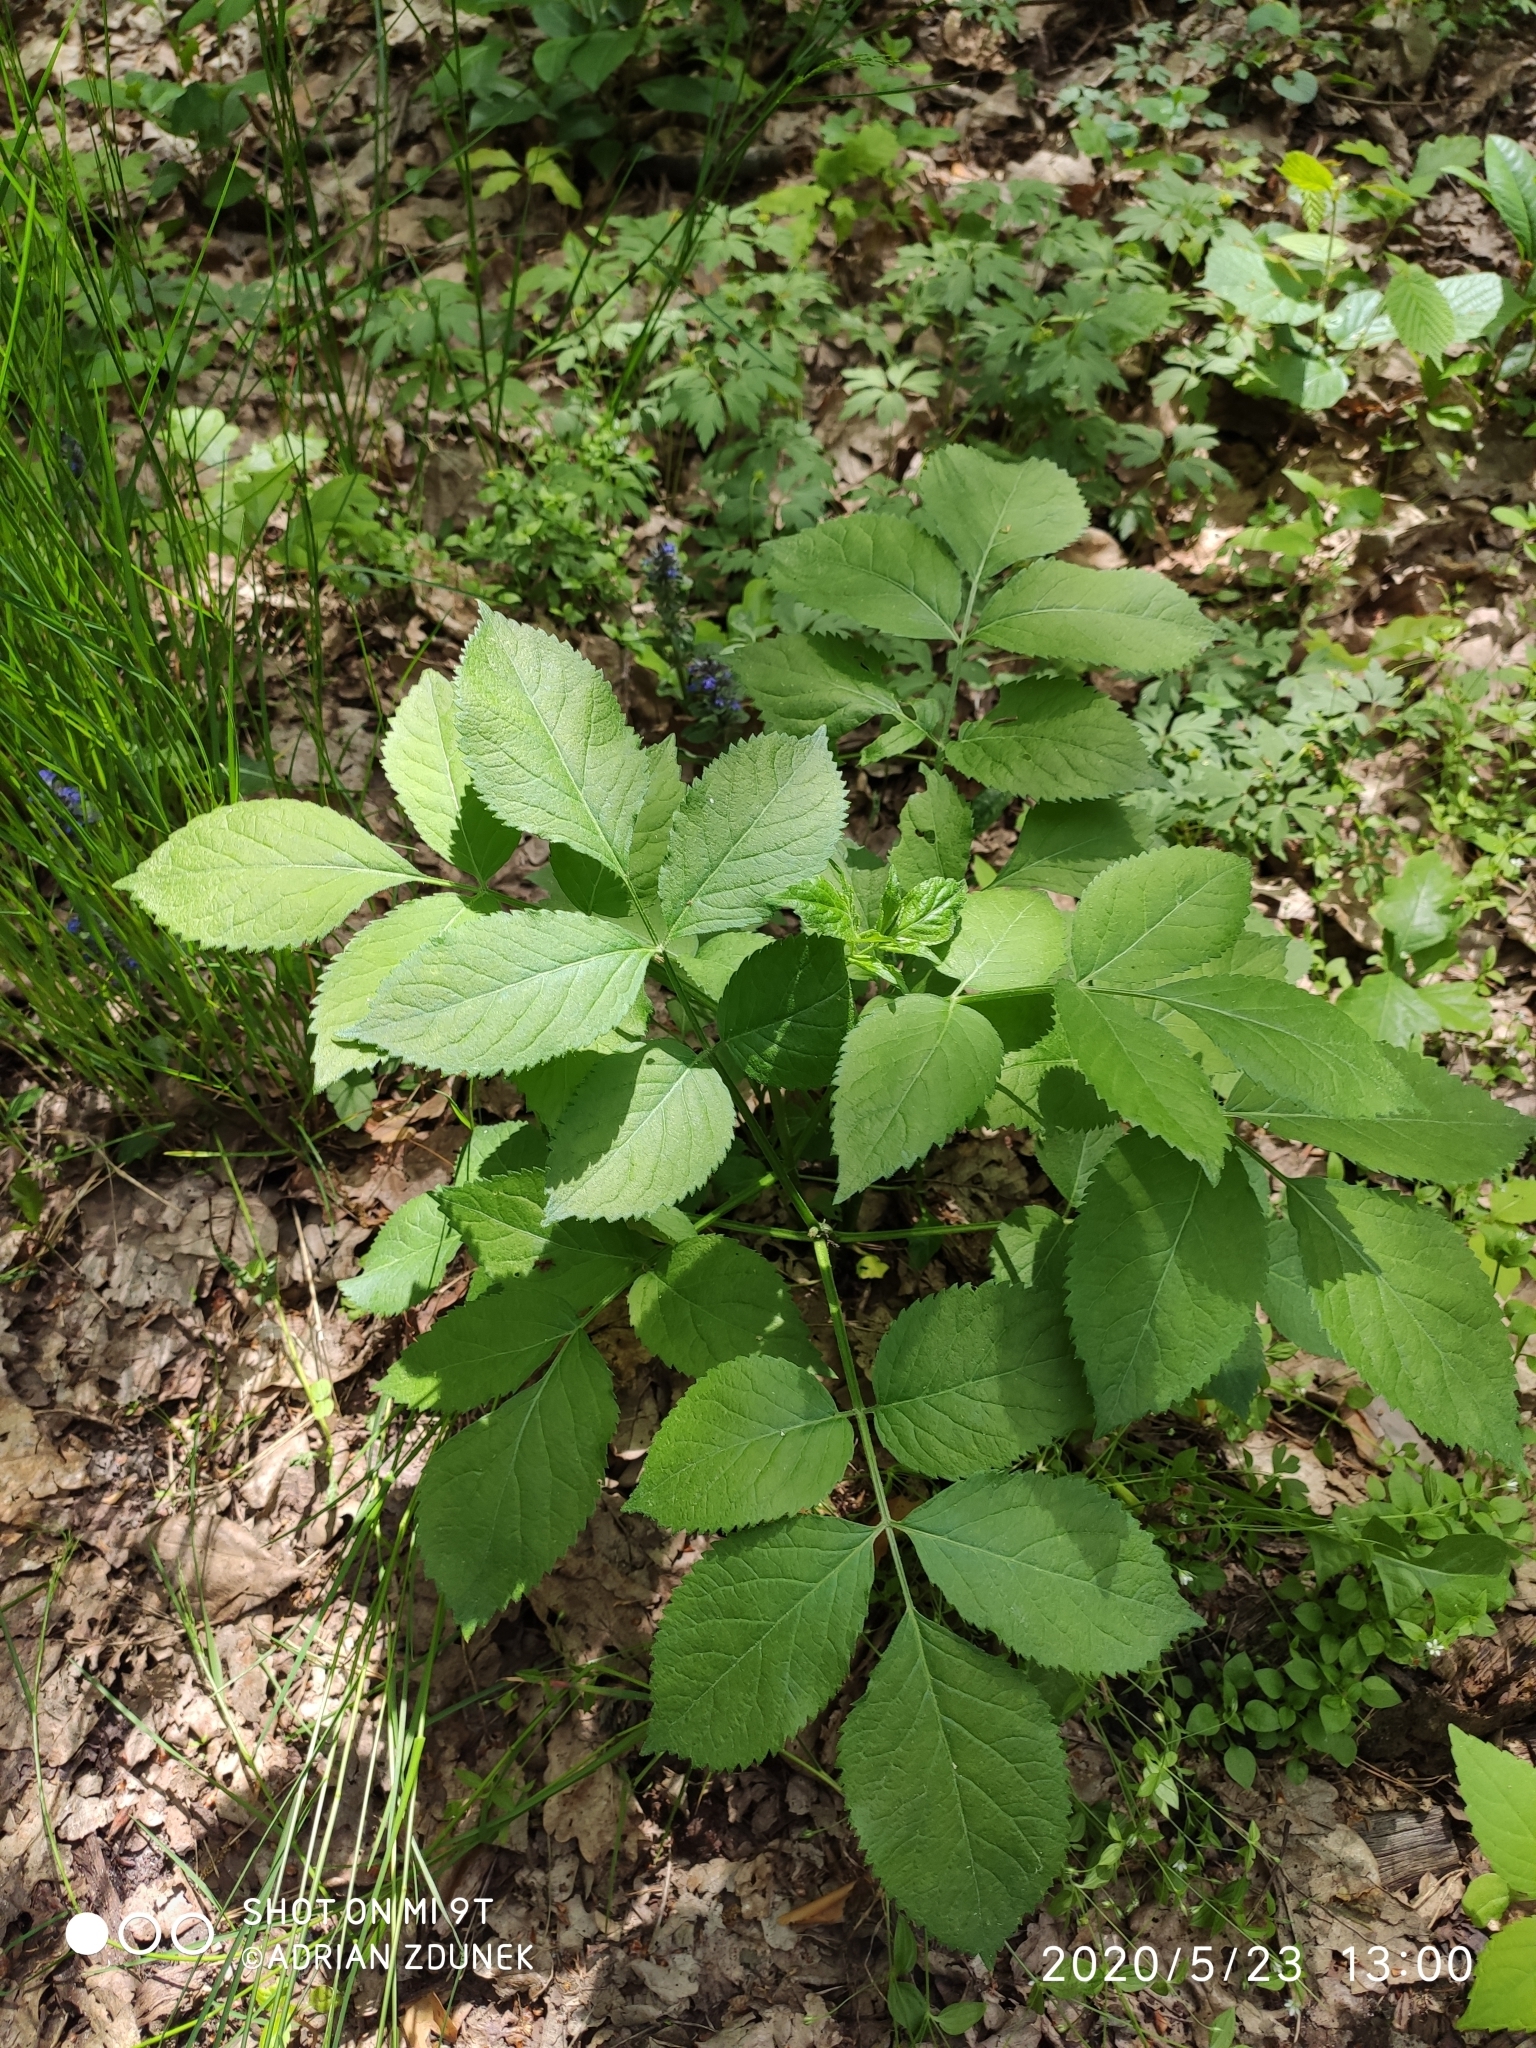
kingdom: Plantae
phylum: Tracheophyta
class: Magnoliopsida
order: Dipsacales
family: Viburnaceae
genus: Sambucus
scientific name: Sambucus nigra
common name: Elder
